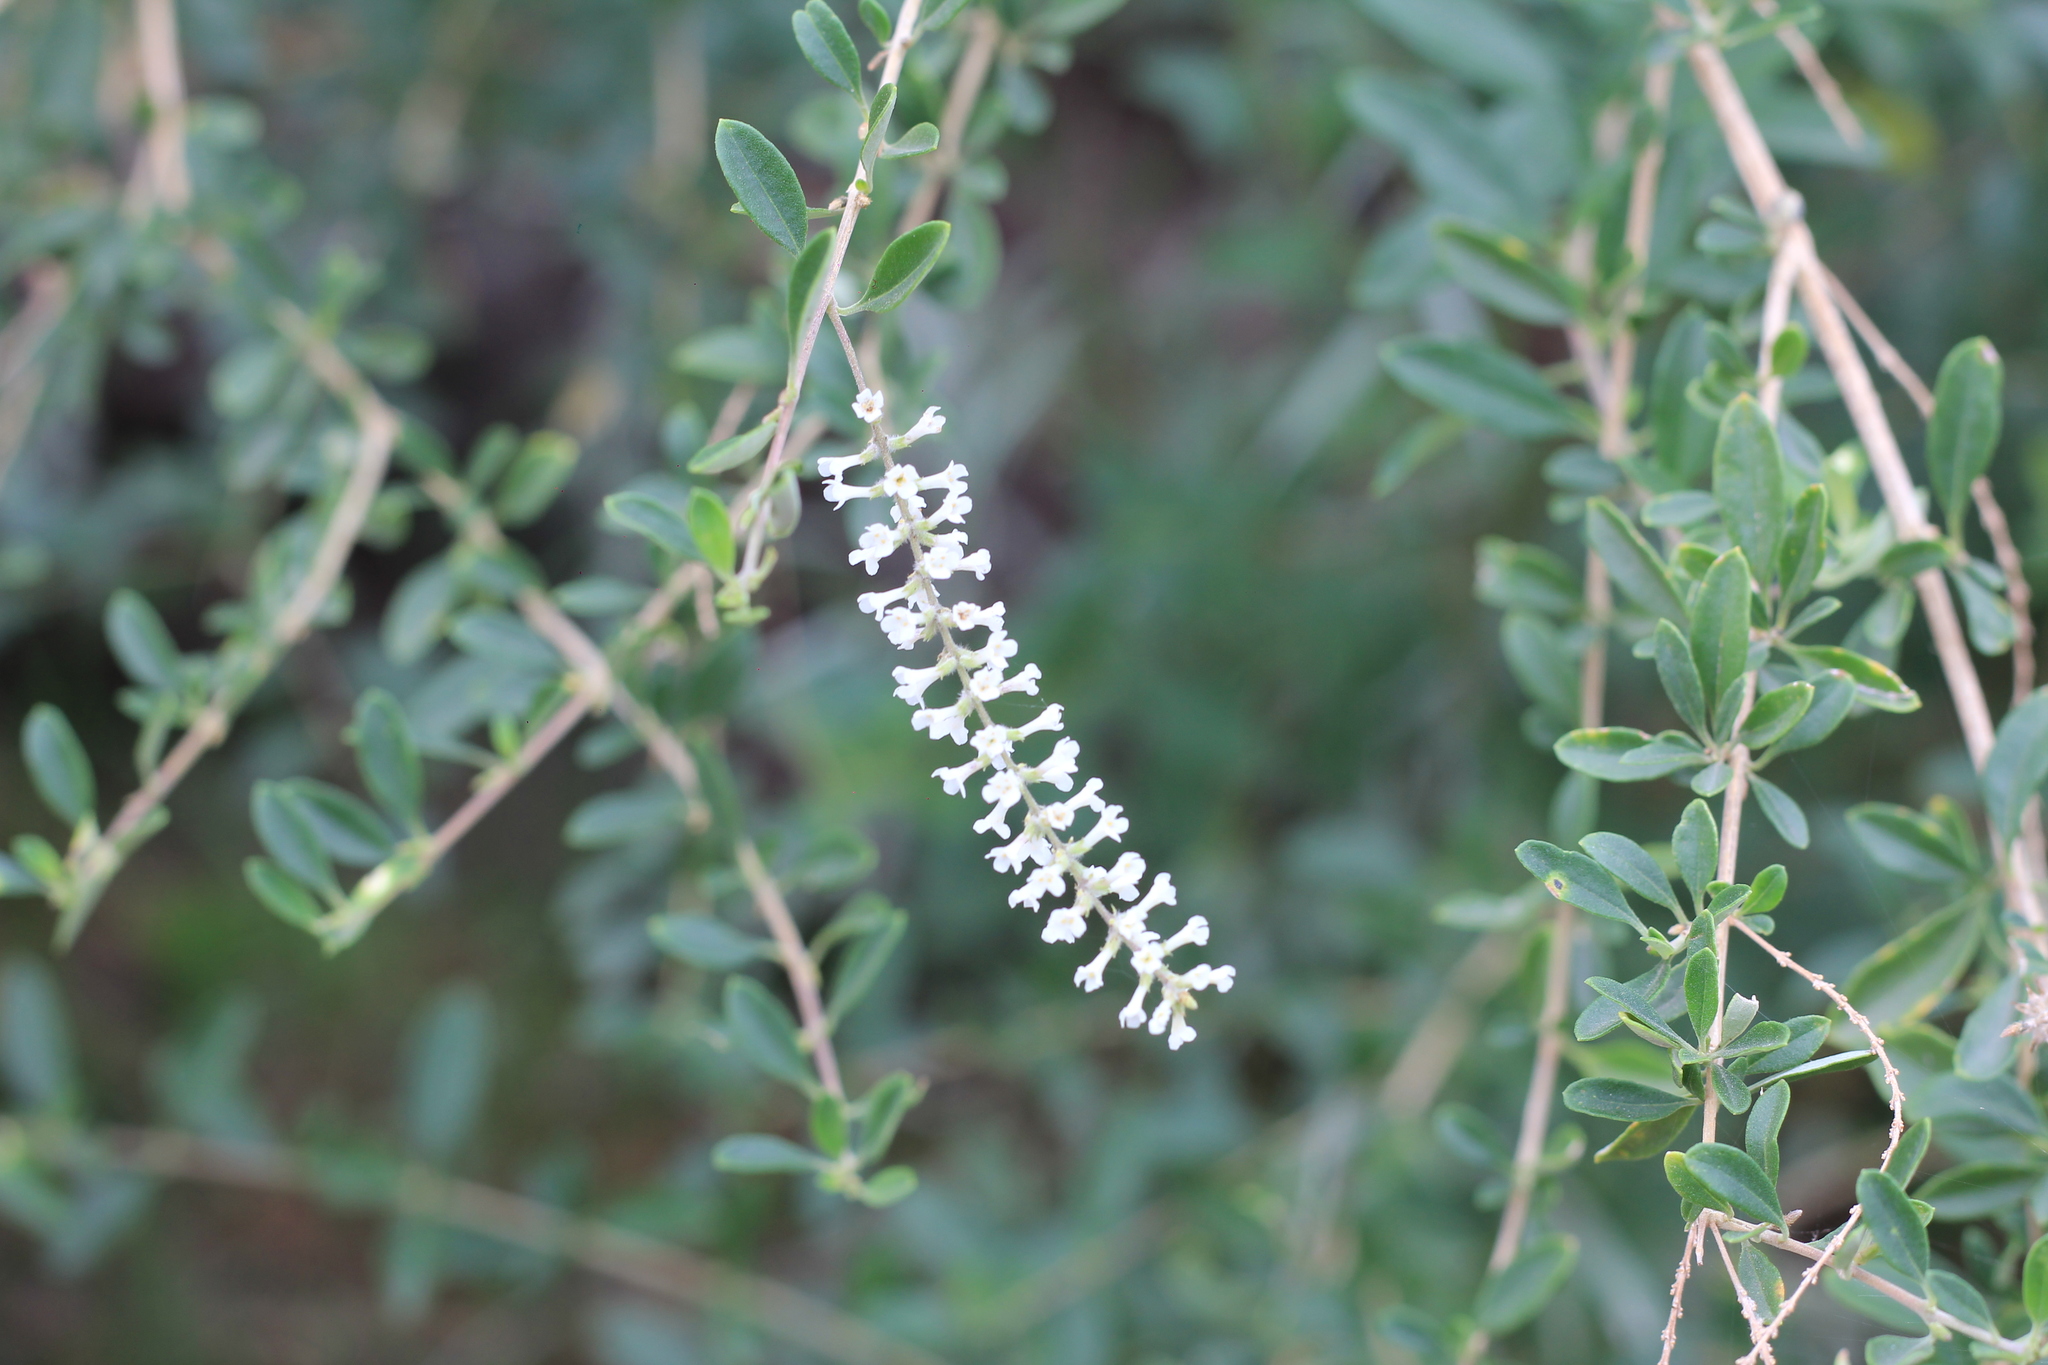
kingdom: Plantae
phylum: Tracheophyta
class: Magnoliopsida
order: Lamiales
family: Verbenaceae
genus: Aloysia
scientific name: Aloysia gratissima
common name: Common bee-brush
